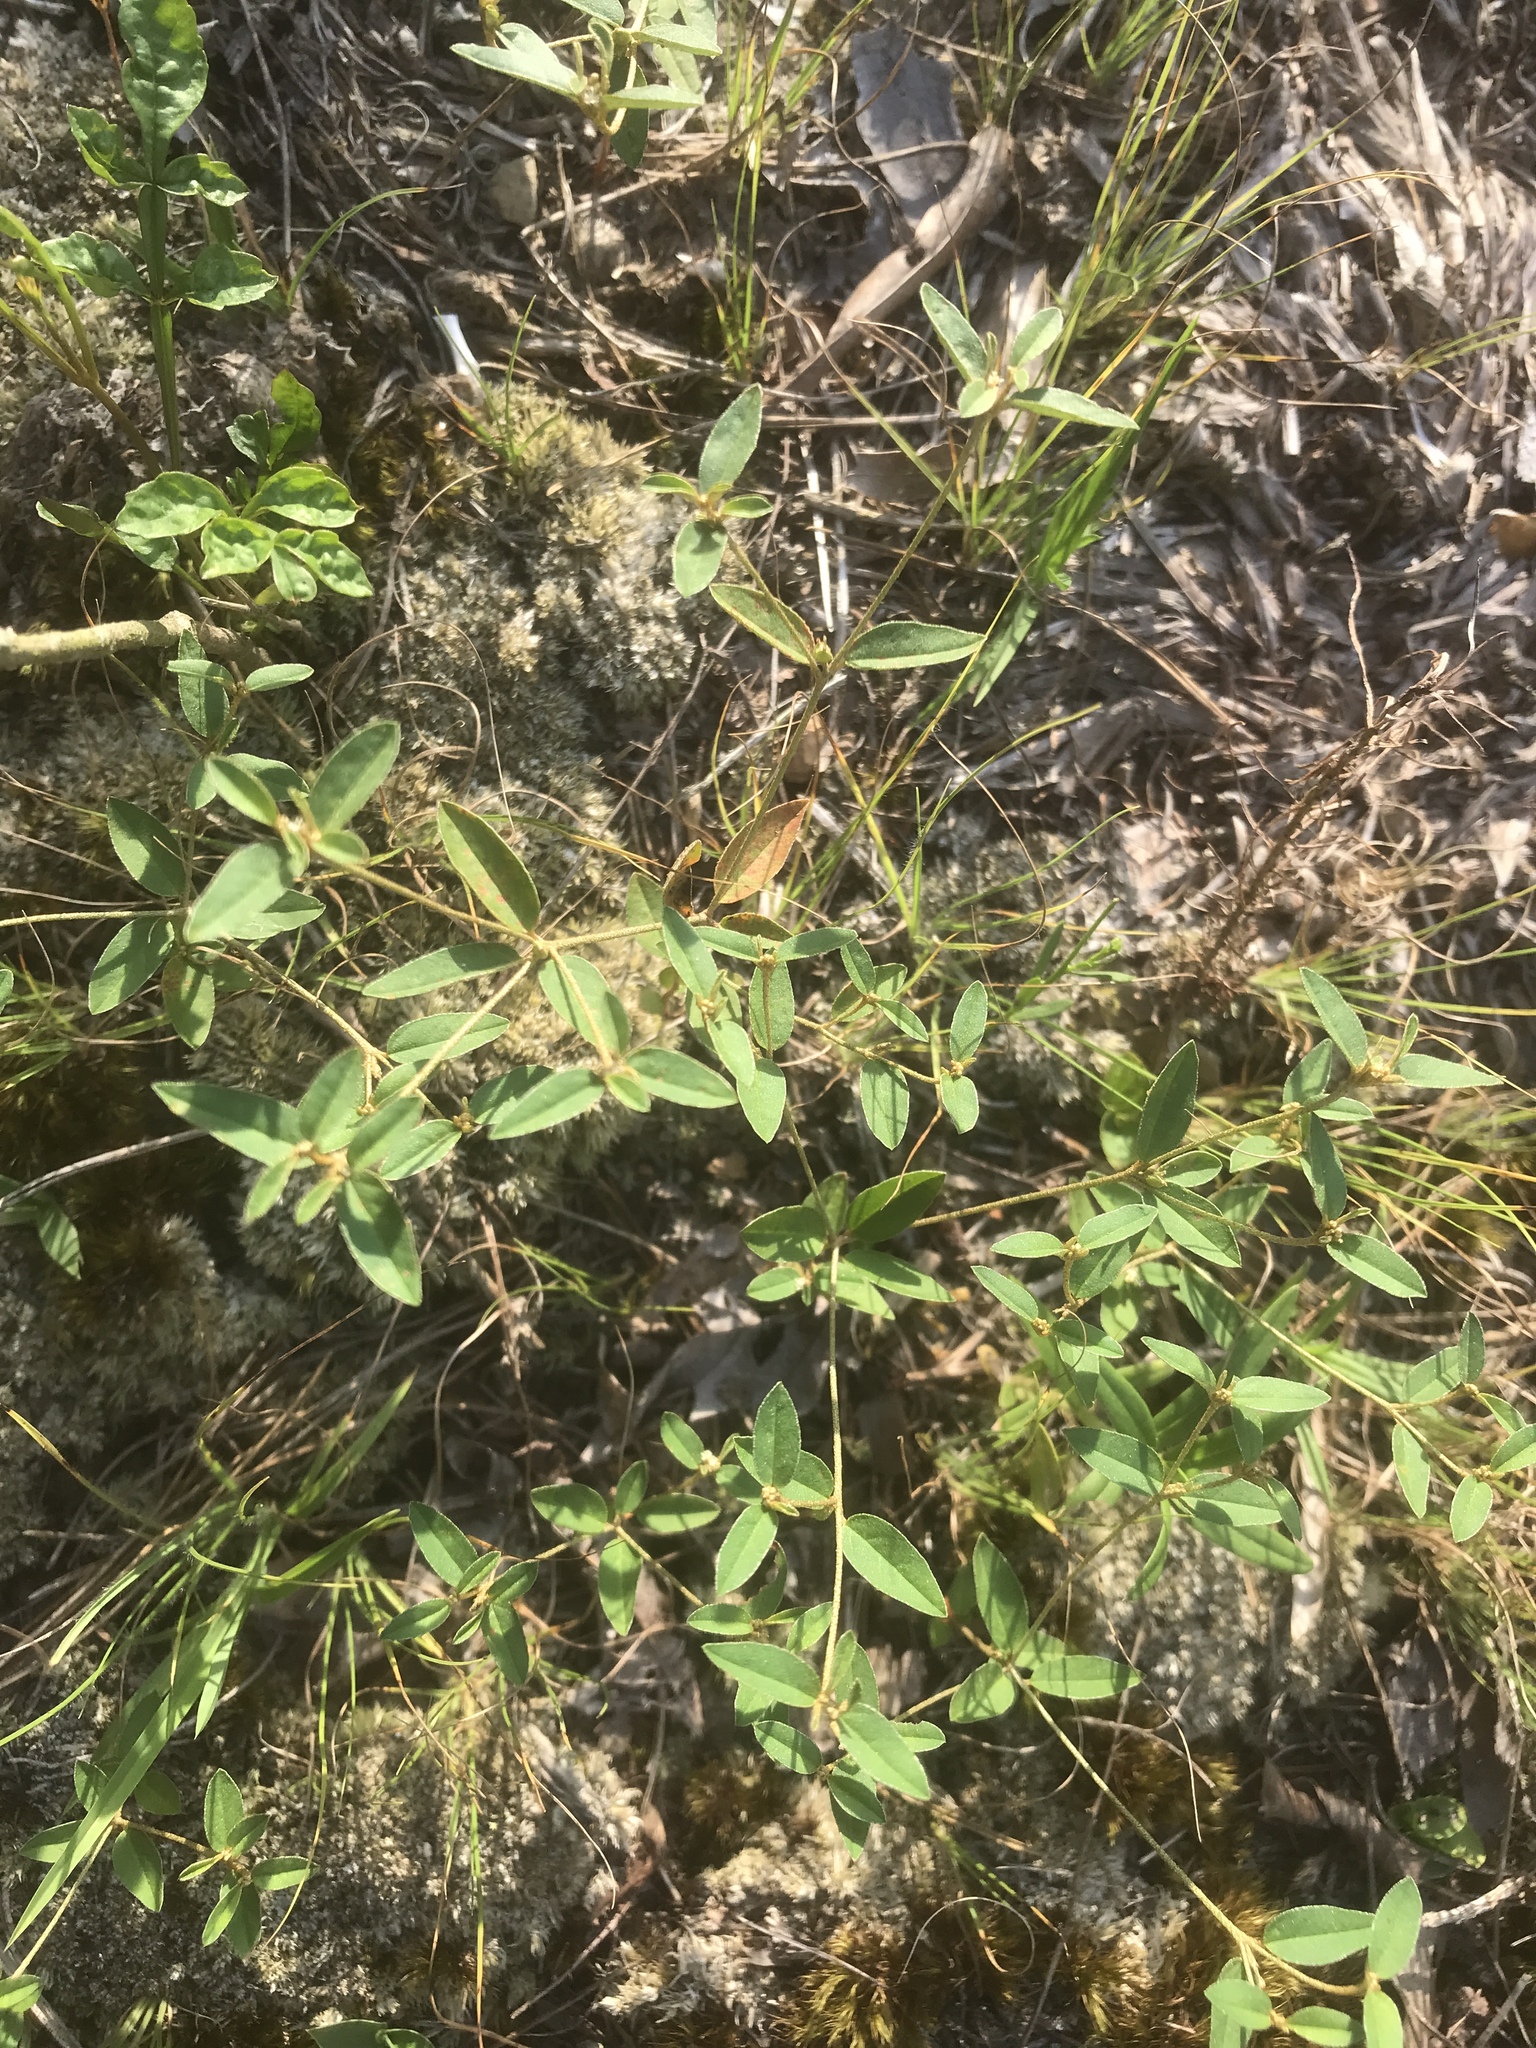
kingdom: Plantae
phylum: Tracheophyta
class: Magnoliopsida
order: Malpighiales
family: Euphorbiaceae
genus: Croton
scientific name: Croton michauxii
